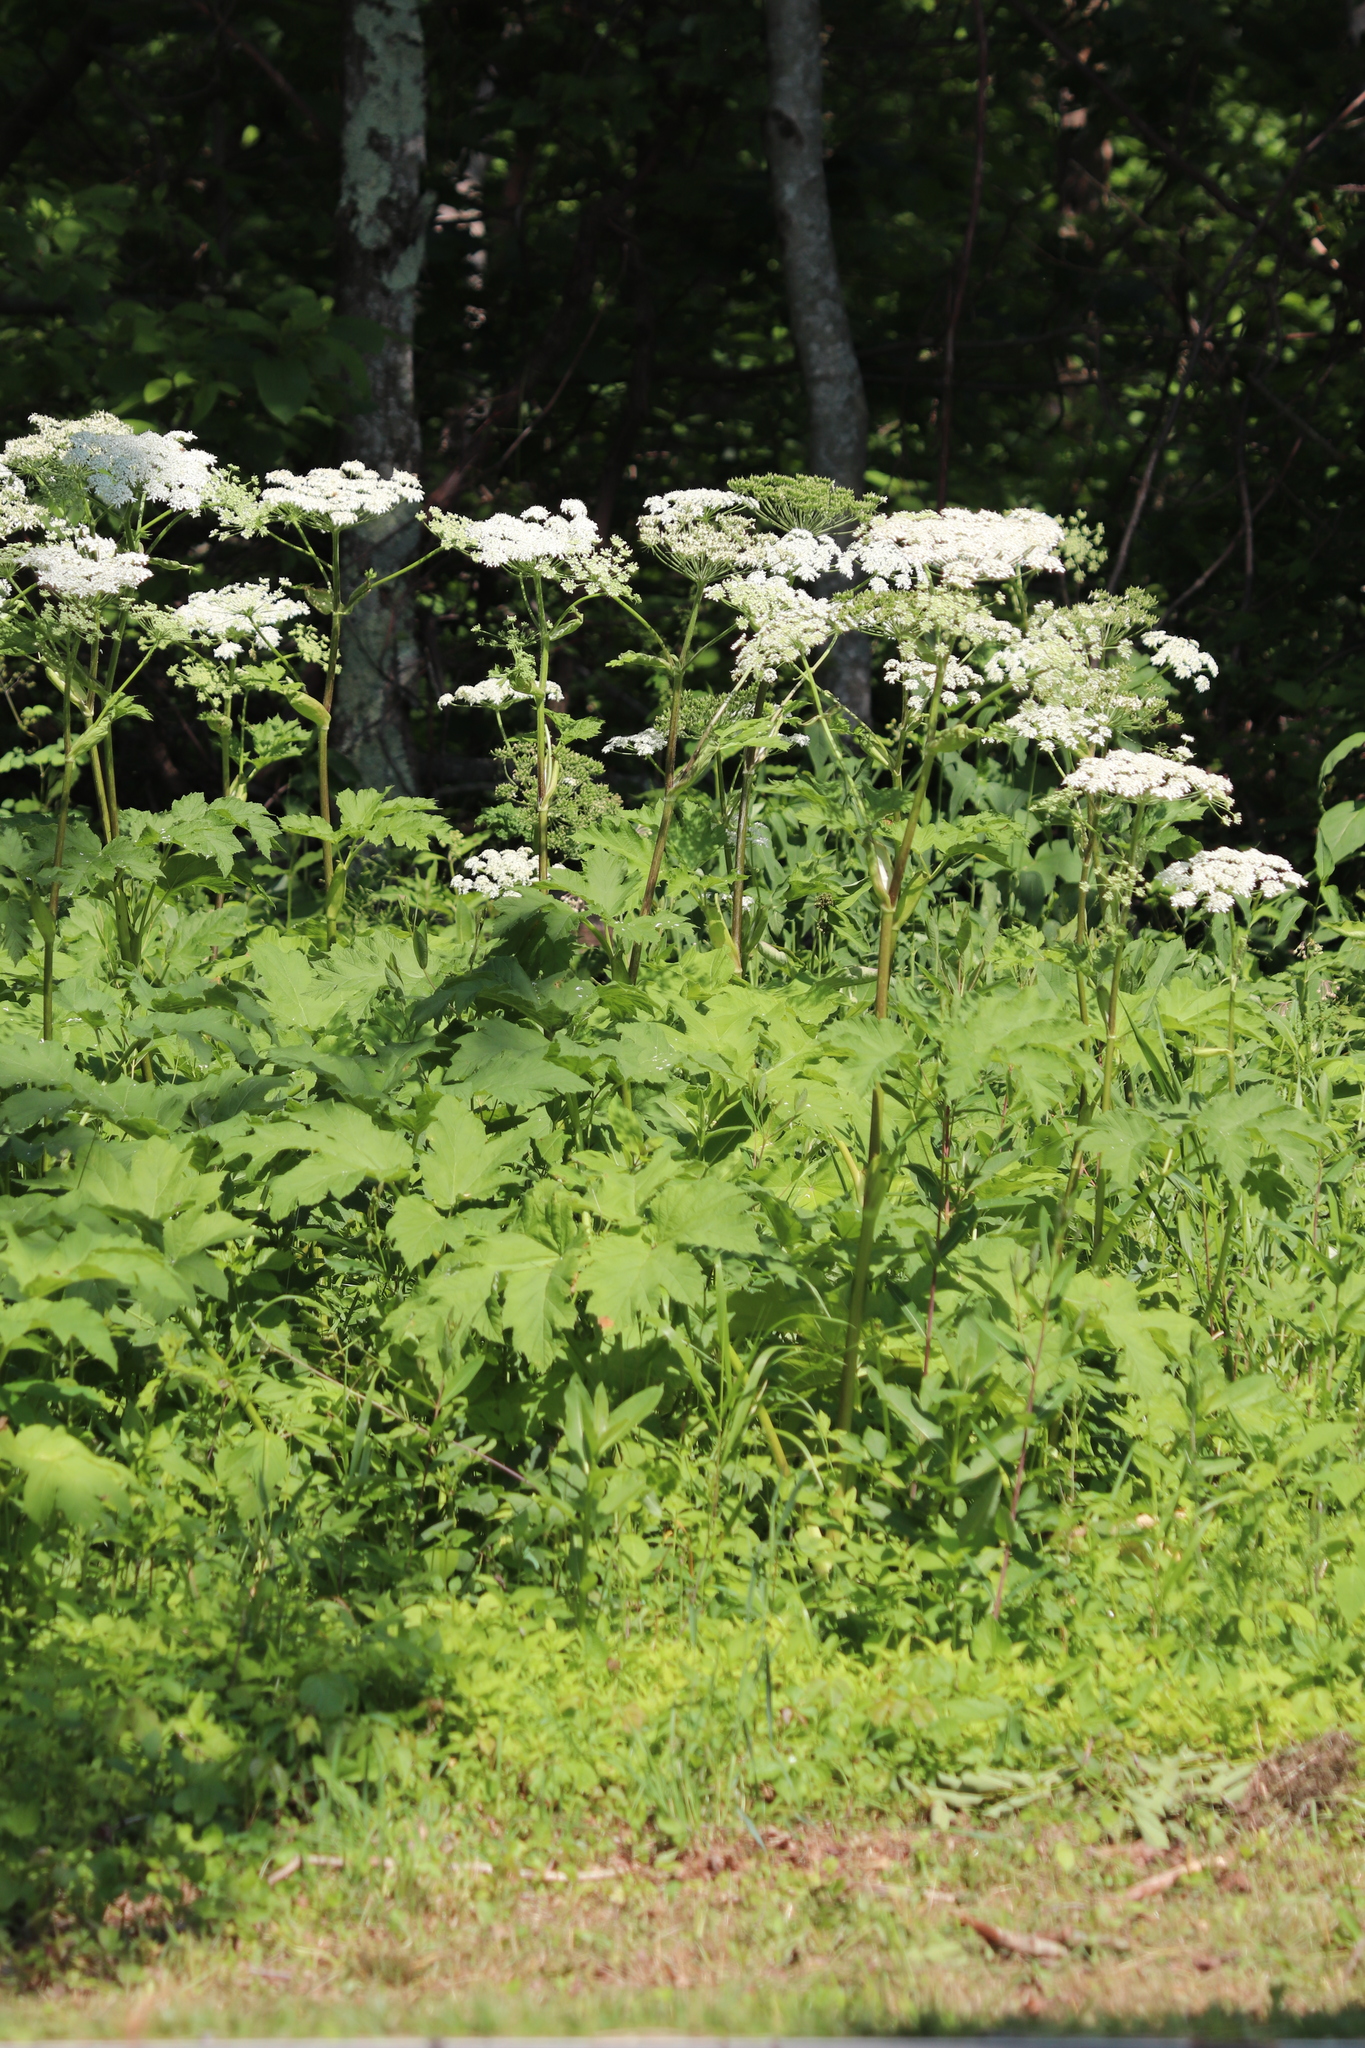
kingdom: Plantae
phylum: Tracheophyta
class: Magnoliopsida
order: Apiales
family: Apiaceae
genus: Heracleum
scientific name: Heracleum maximum
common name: American cow parsnip
